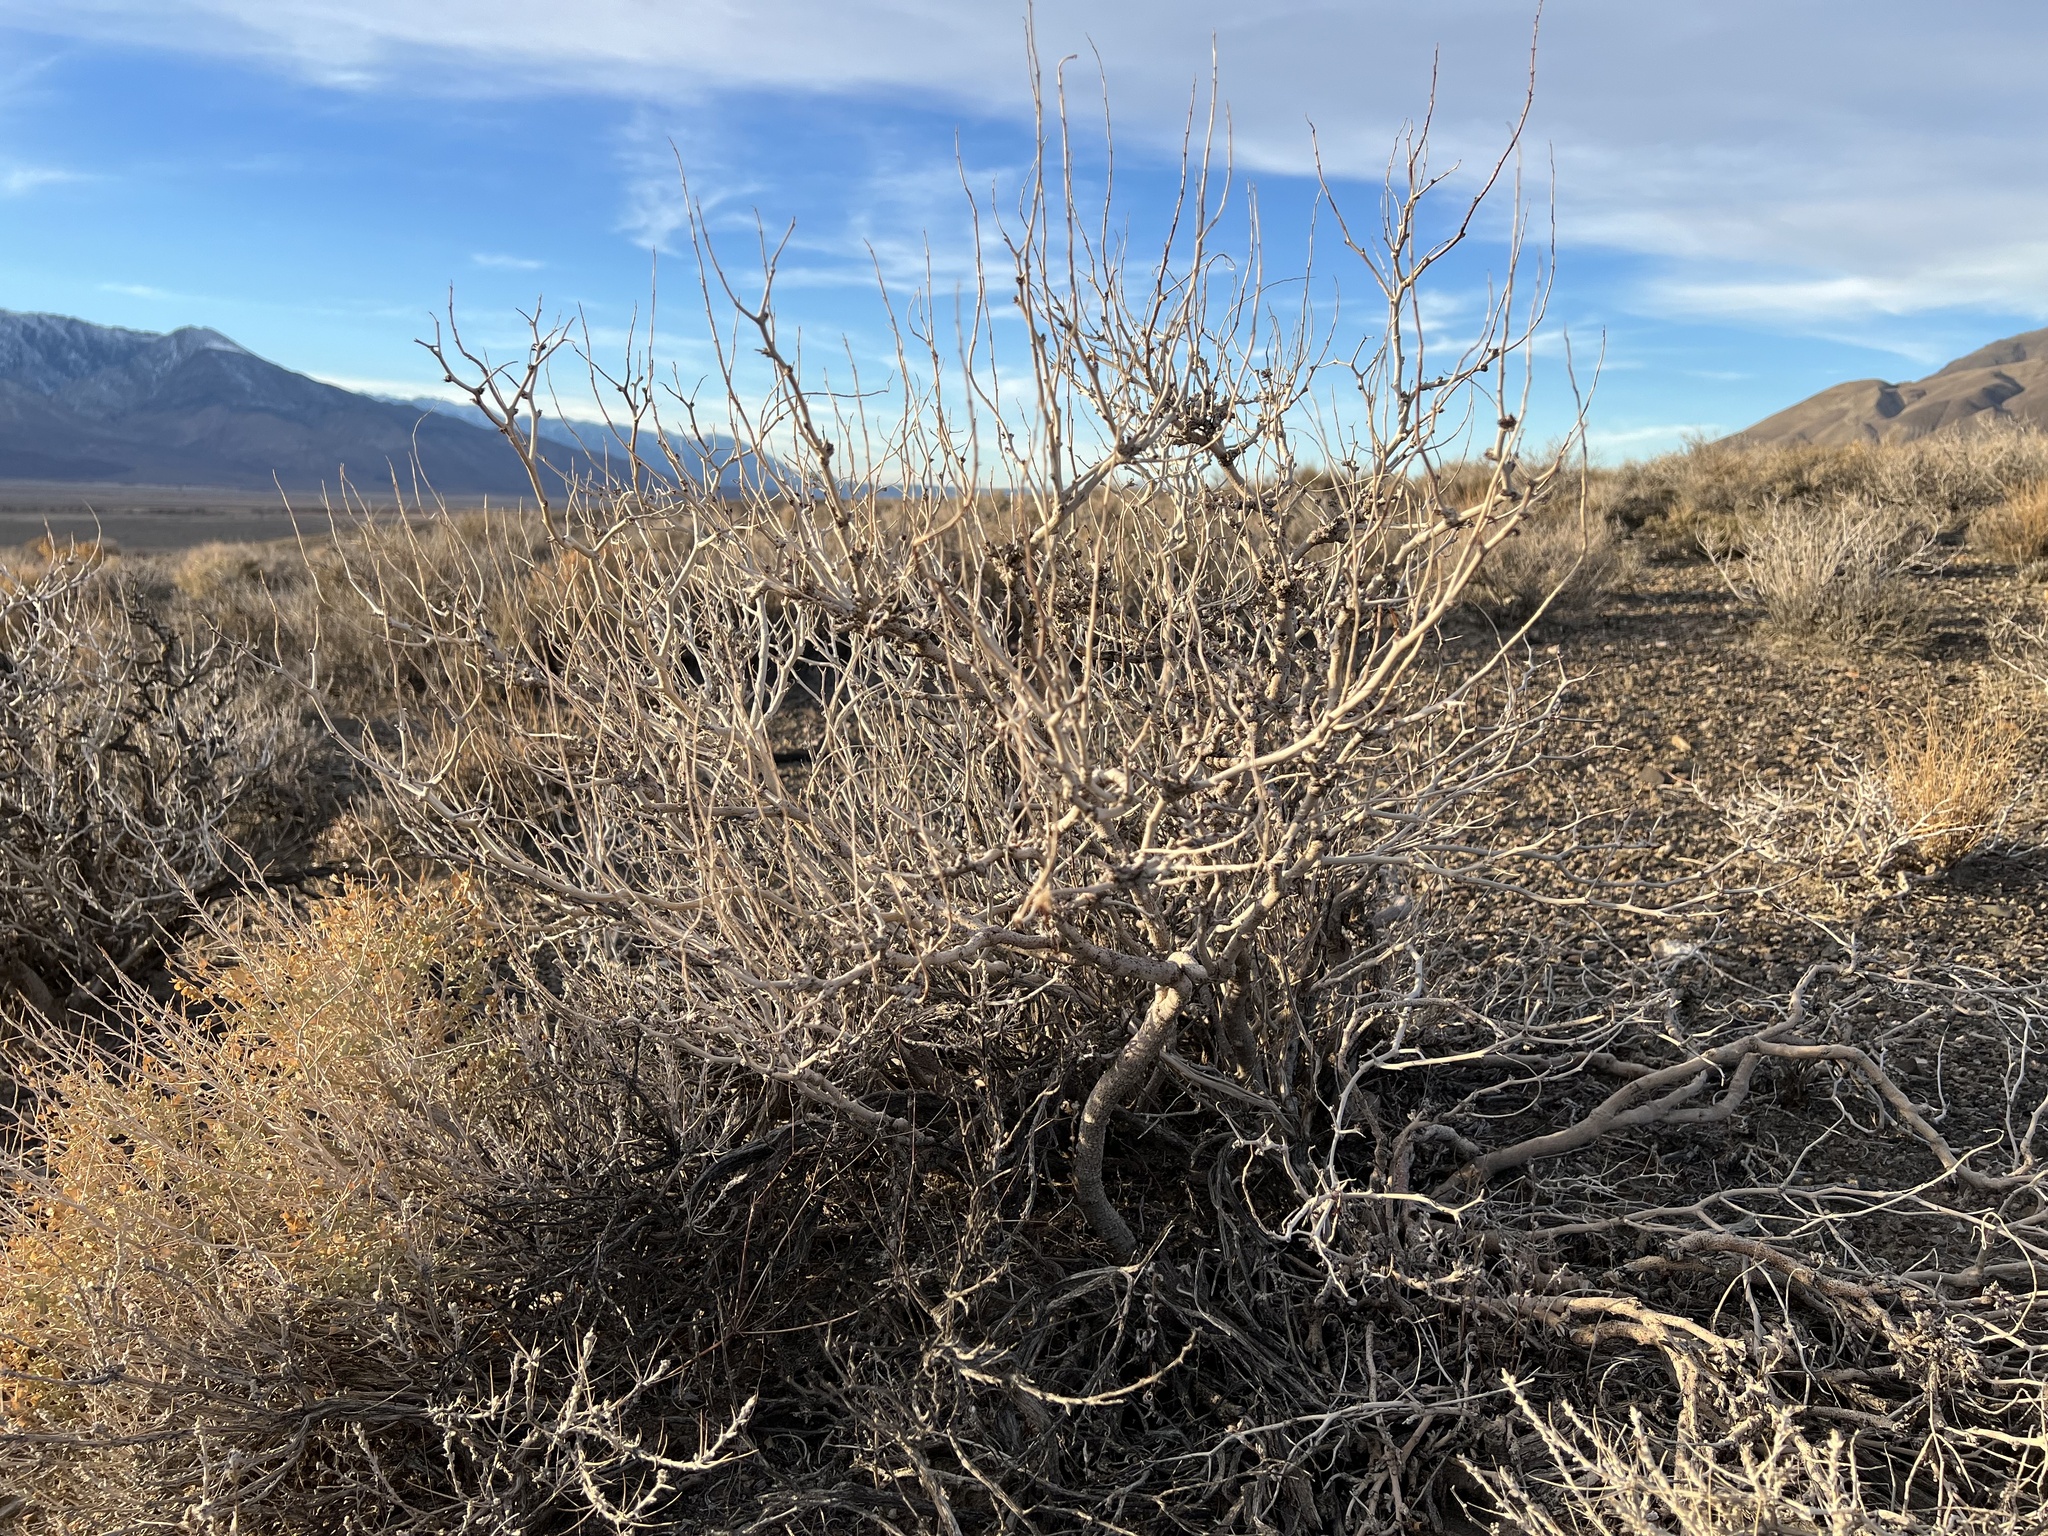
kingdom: Plantae
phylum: Tracheophyta
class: Magnoliopsida
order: Fabales
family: Fabaceae
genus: Psorothamnus
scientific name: Psorothamnus arborescens
